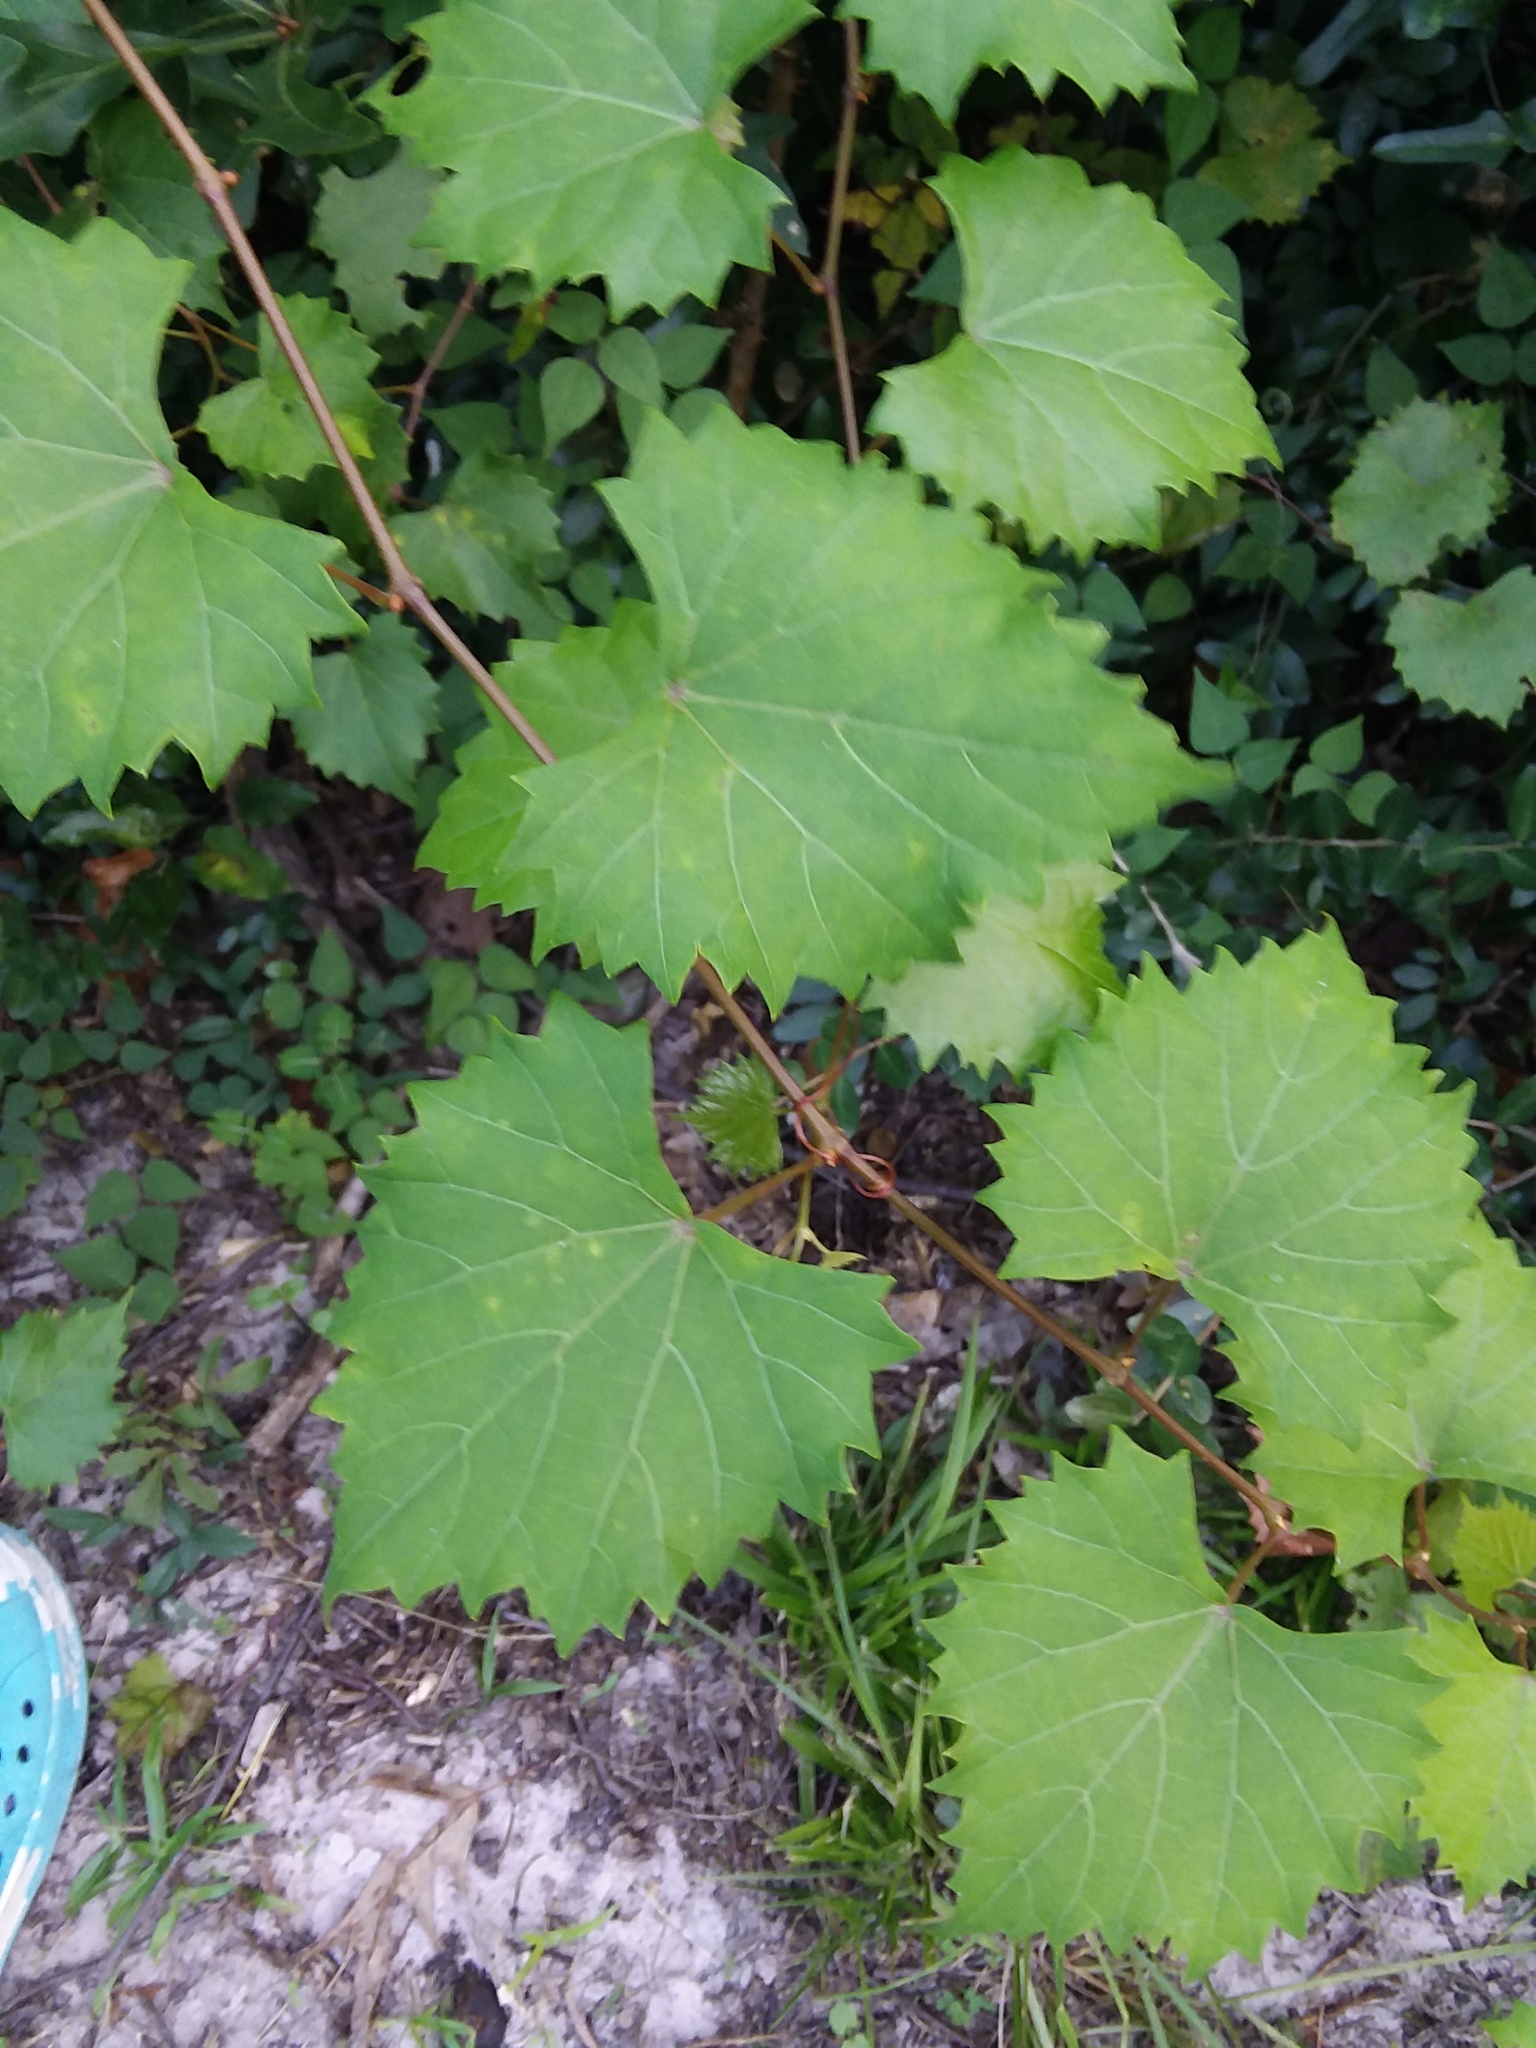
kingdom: Plantae
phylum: Tracheophyta
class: Magnoliopsida
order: Vitales
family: Vitaceae
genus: Vitis
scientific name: Vitis rotundifolia
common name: Muscadine grape
